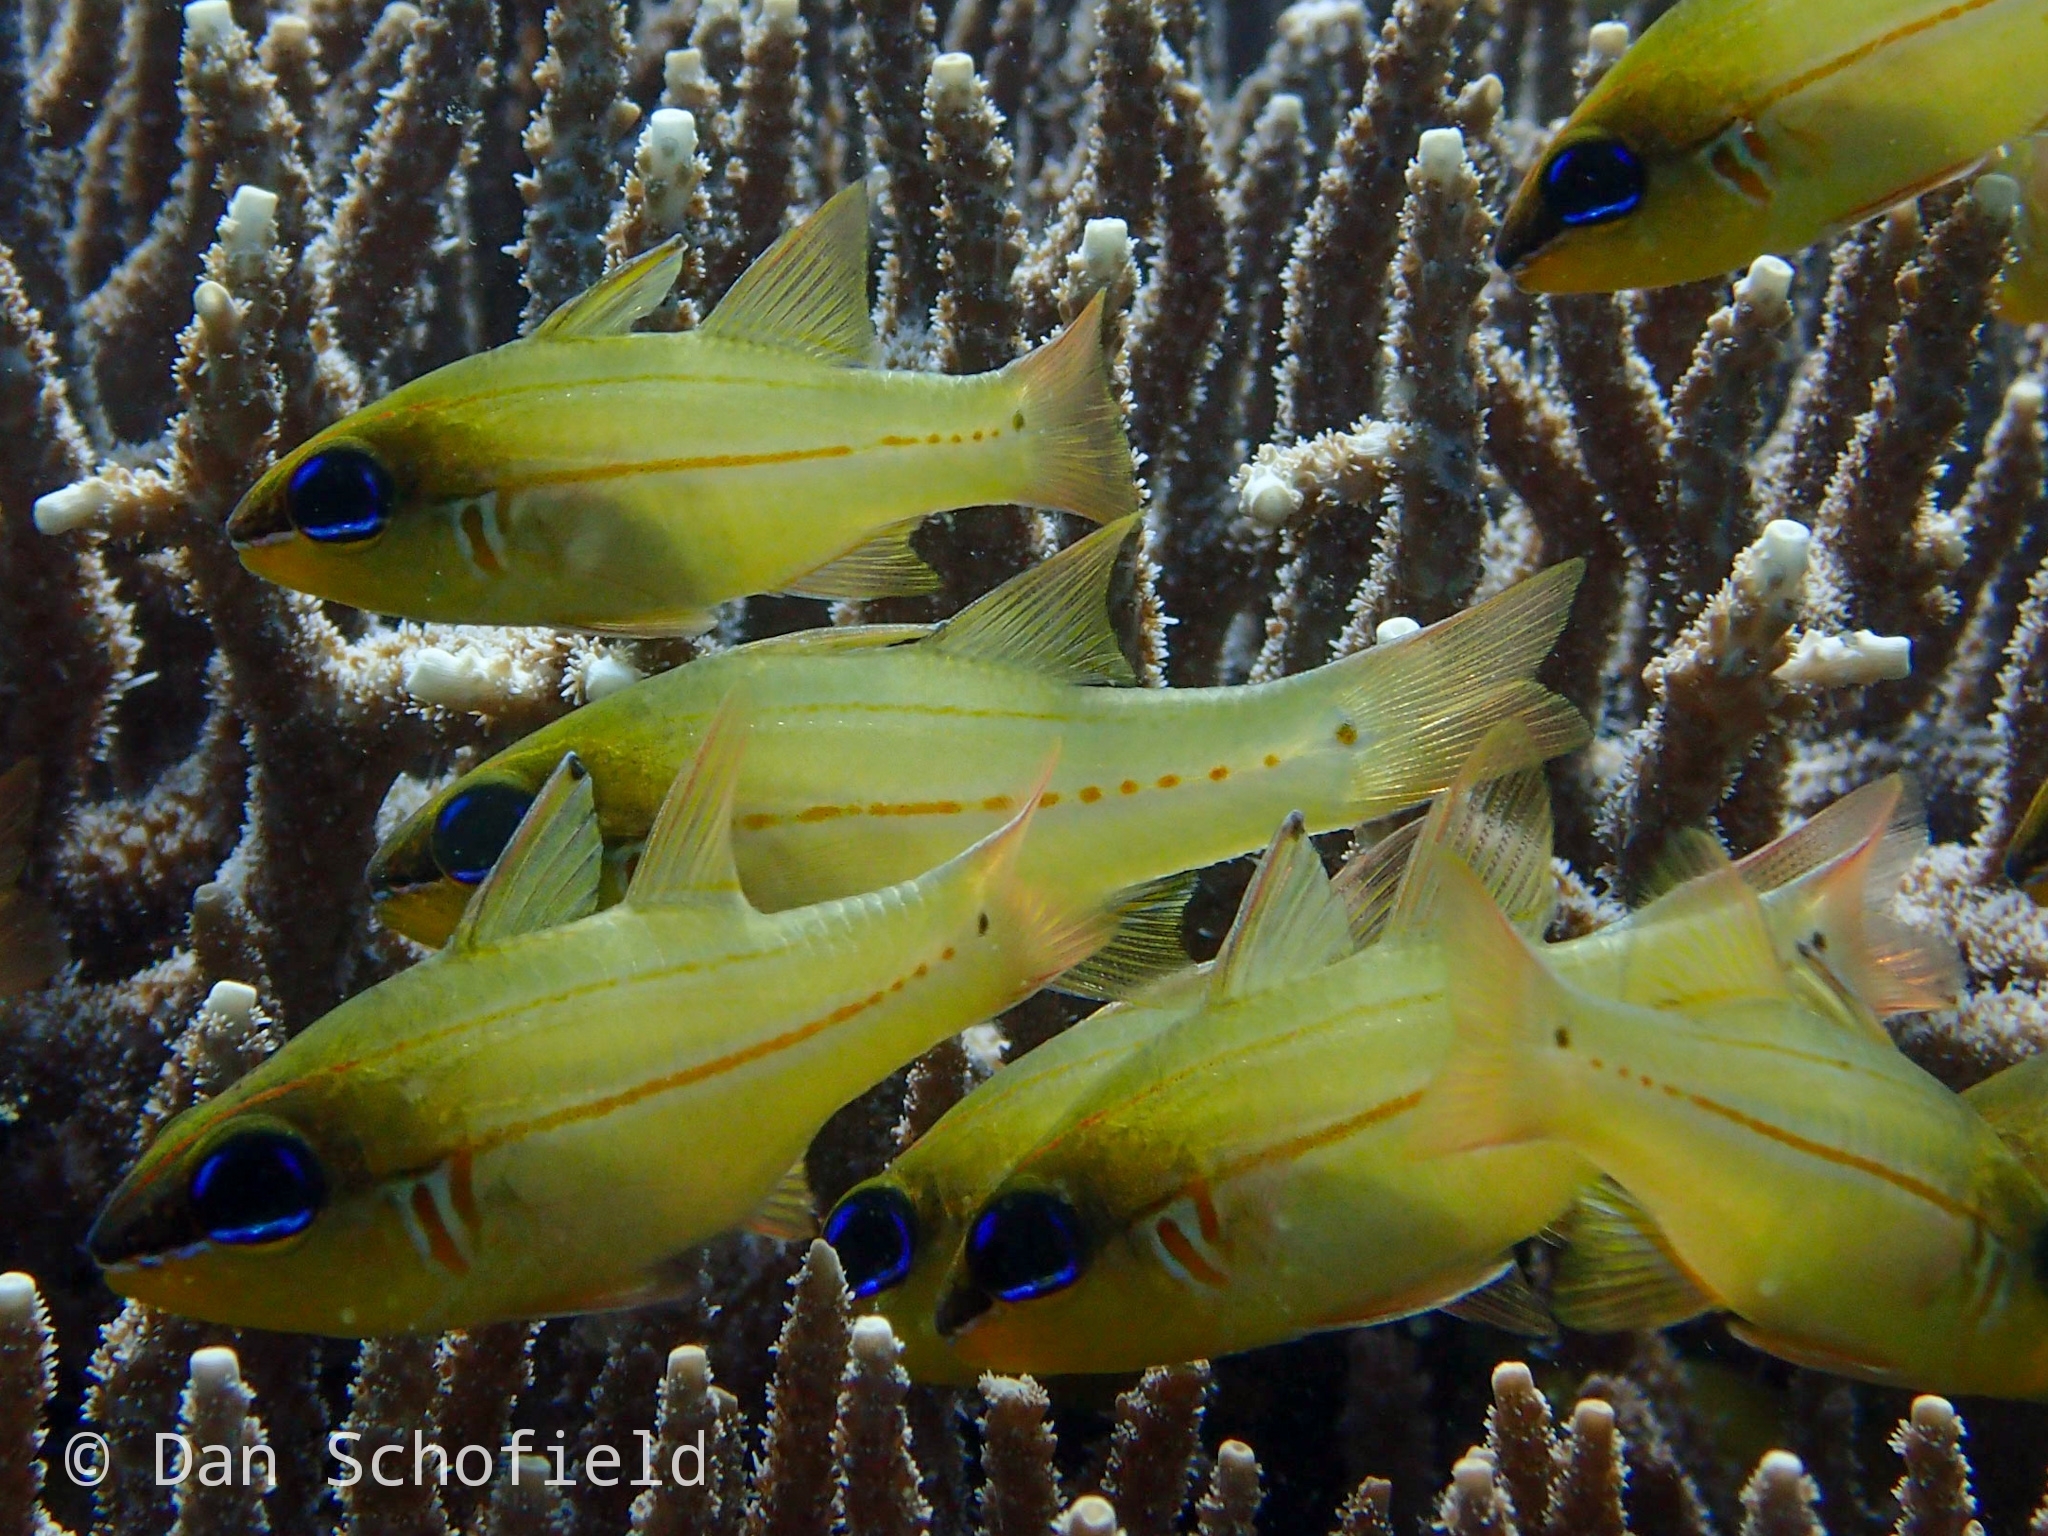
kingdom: Animalia
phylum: Chordata
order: Perciformes
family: Apogonidae
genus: Ostorhinchus
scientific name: Ostorhinchus sealei
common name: Seale's cardinalfish
